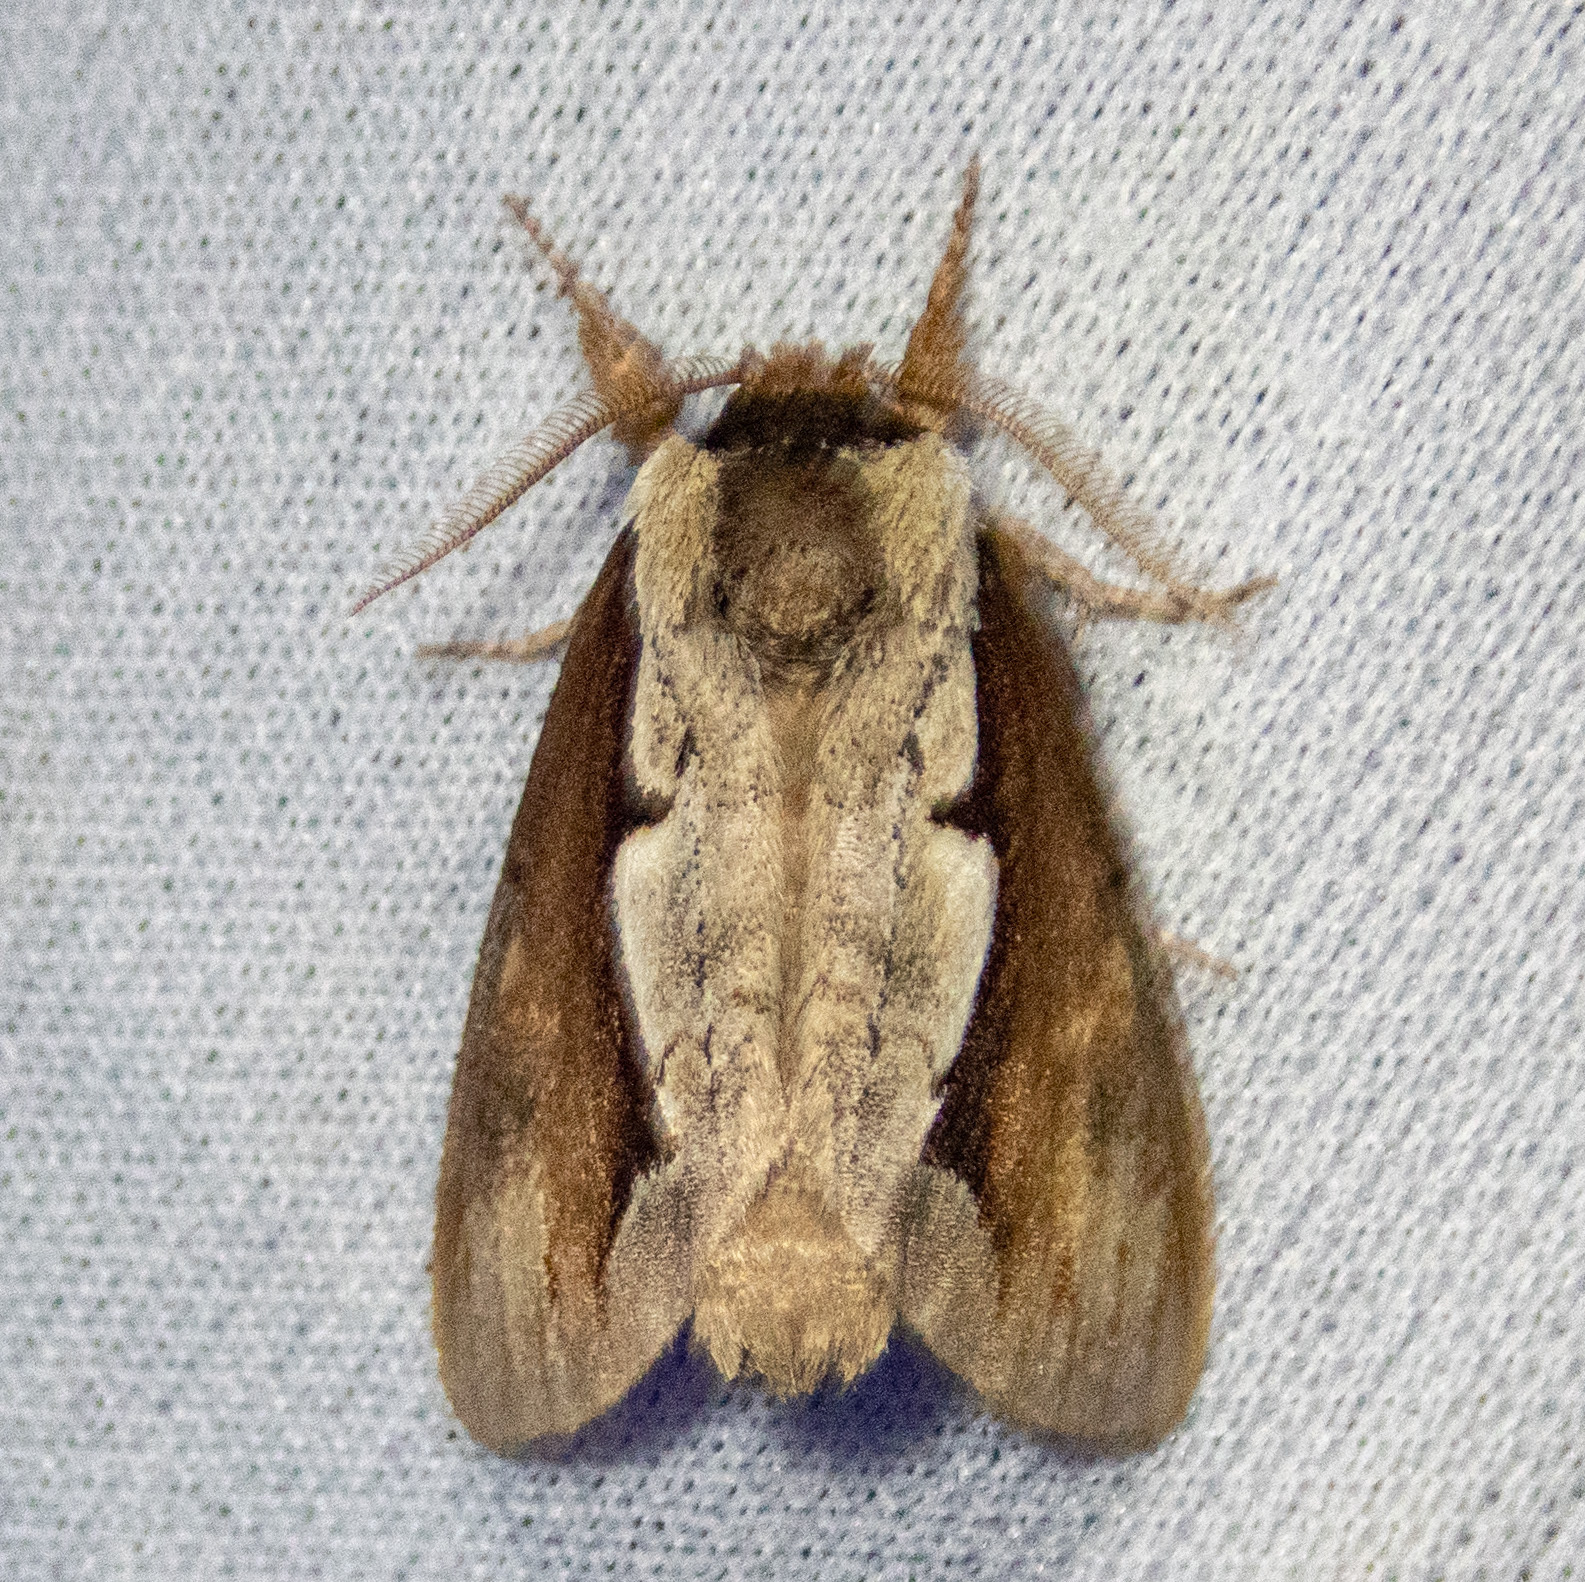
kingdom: Animalia
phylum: Arthropoda
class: Insecta
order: Lepidoptera
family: Notodontidae
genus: Nerice
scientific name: Nerice bidentata
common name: Double-toothed prominent
